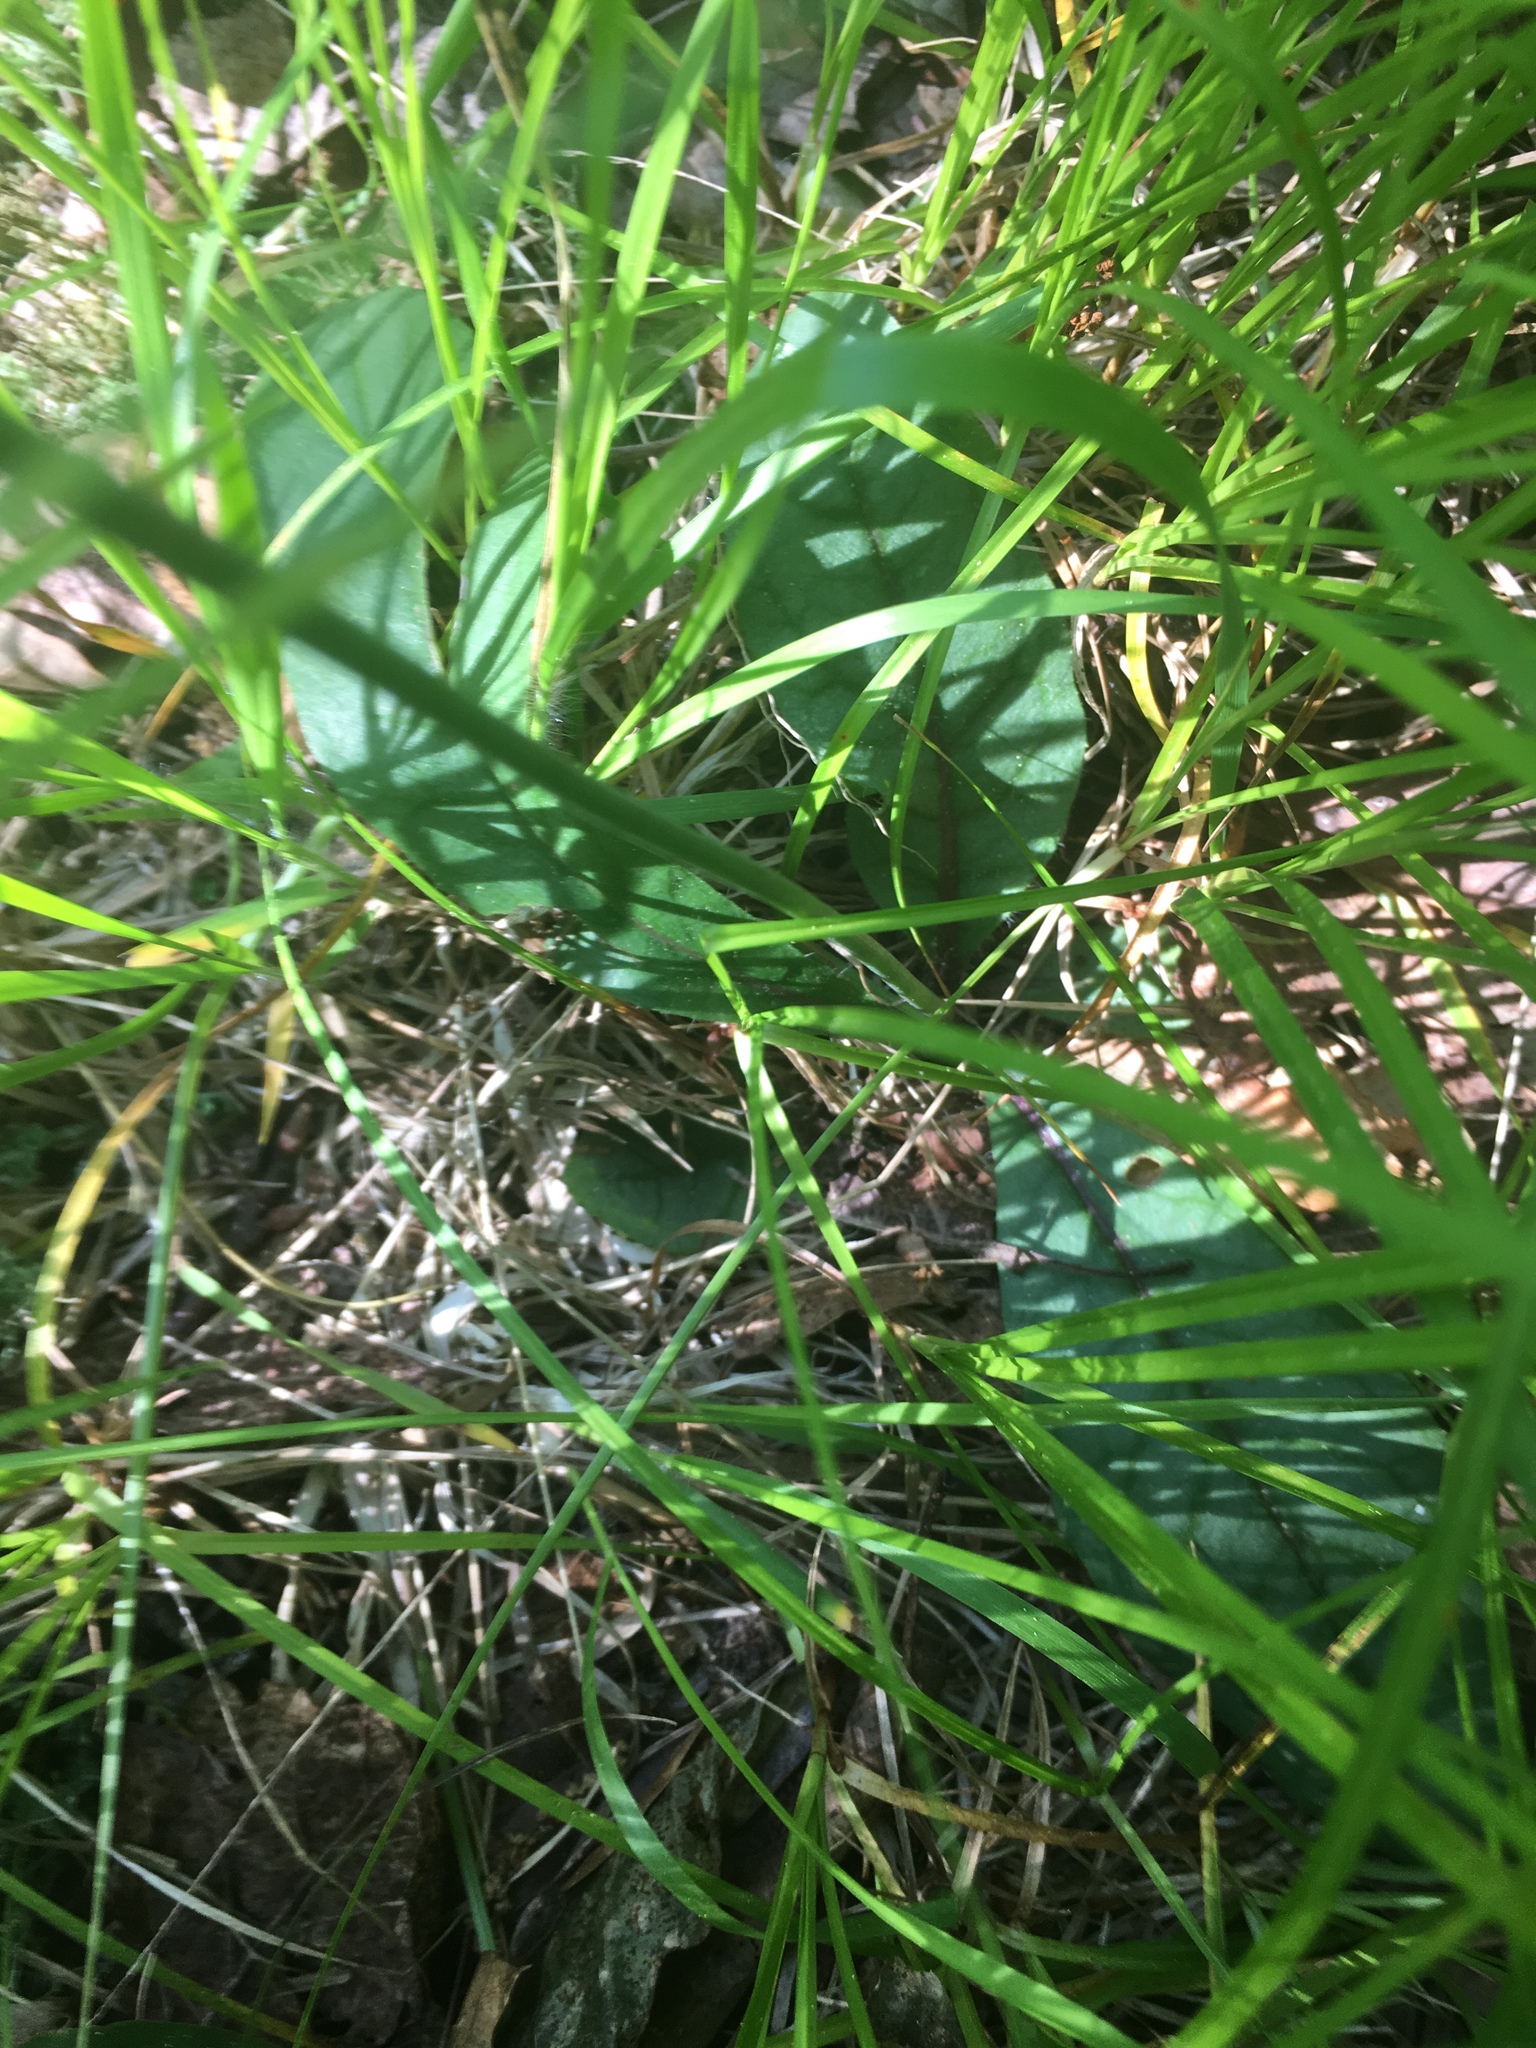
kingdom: Plantae
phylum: Tracheophyta
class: Magnoliopsida
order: Asterales
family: Asteraceae
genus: Hieracium
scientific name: Hieracium venosum
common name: Rattlesnake hawkweed
